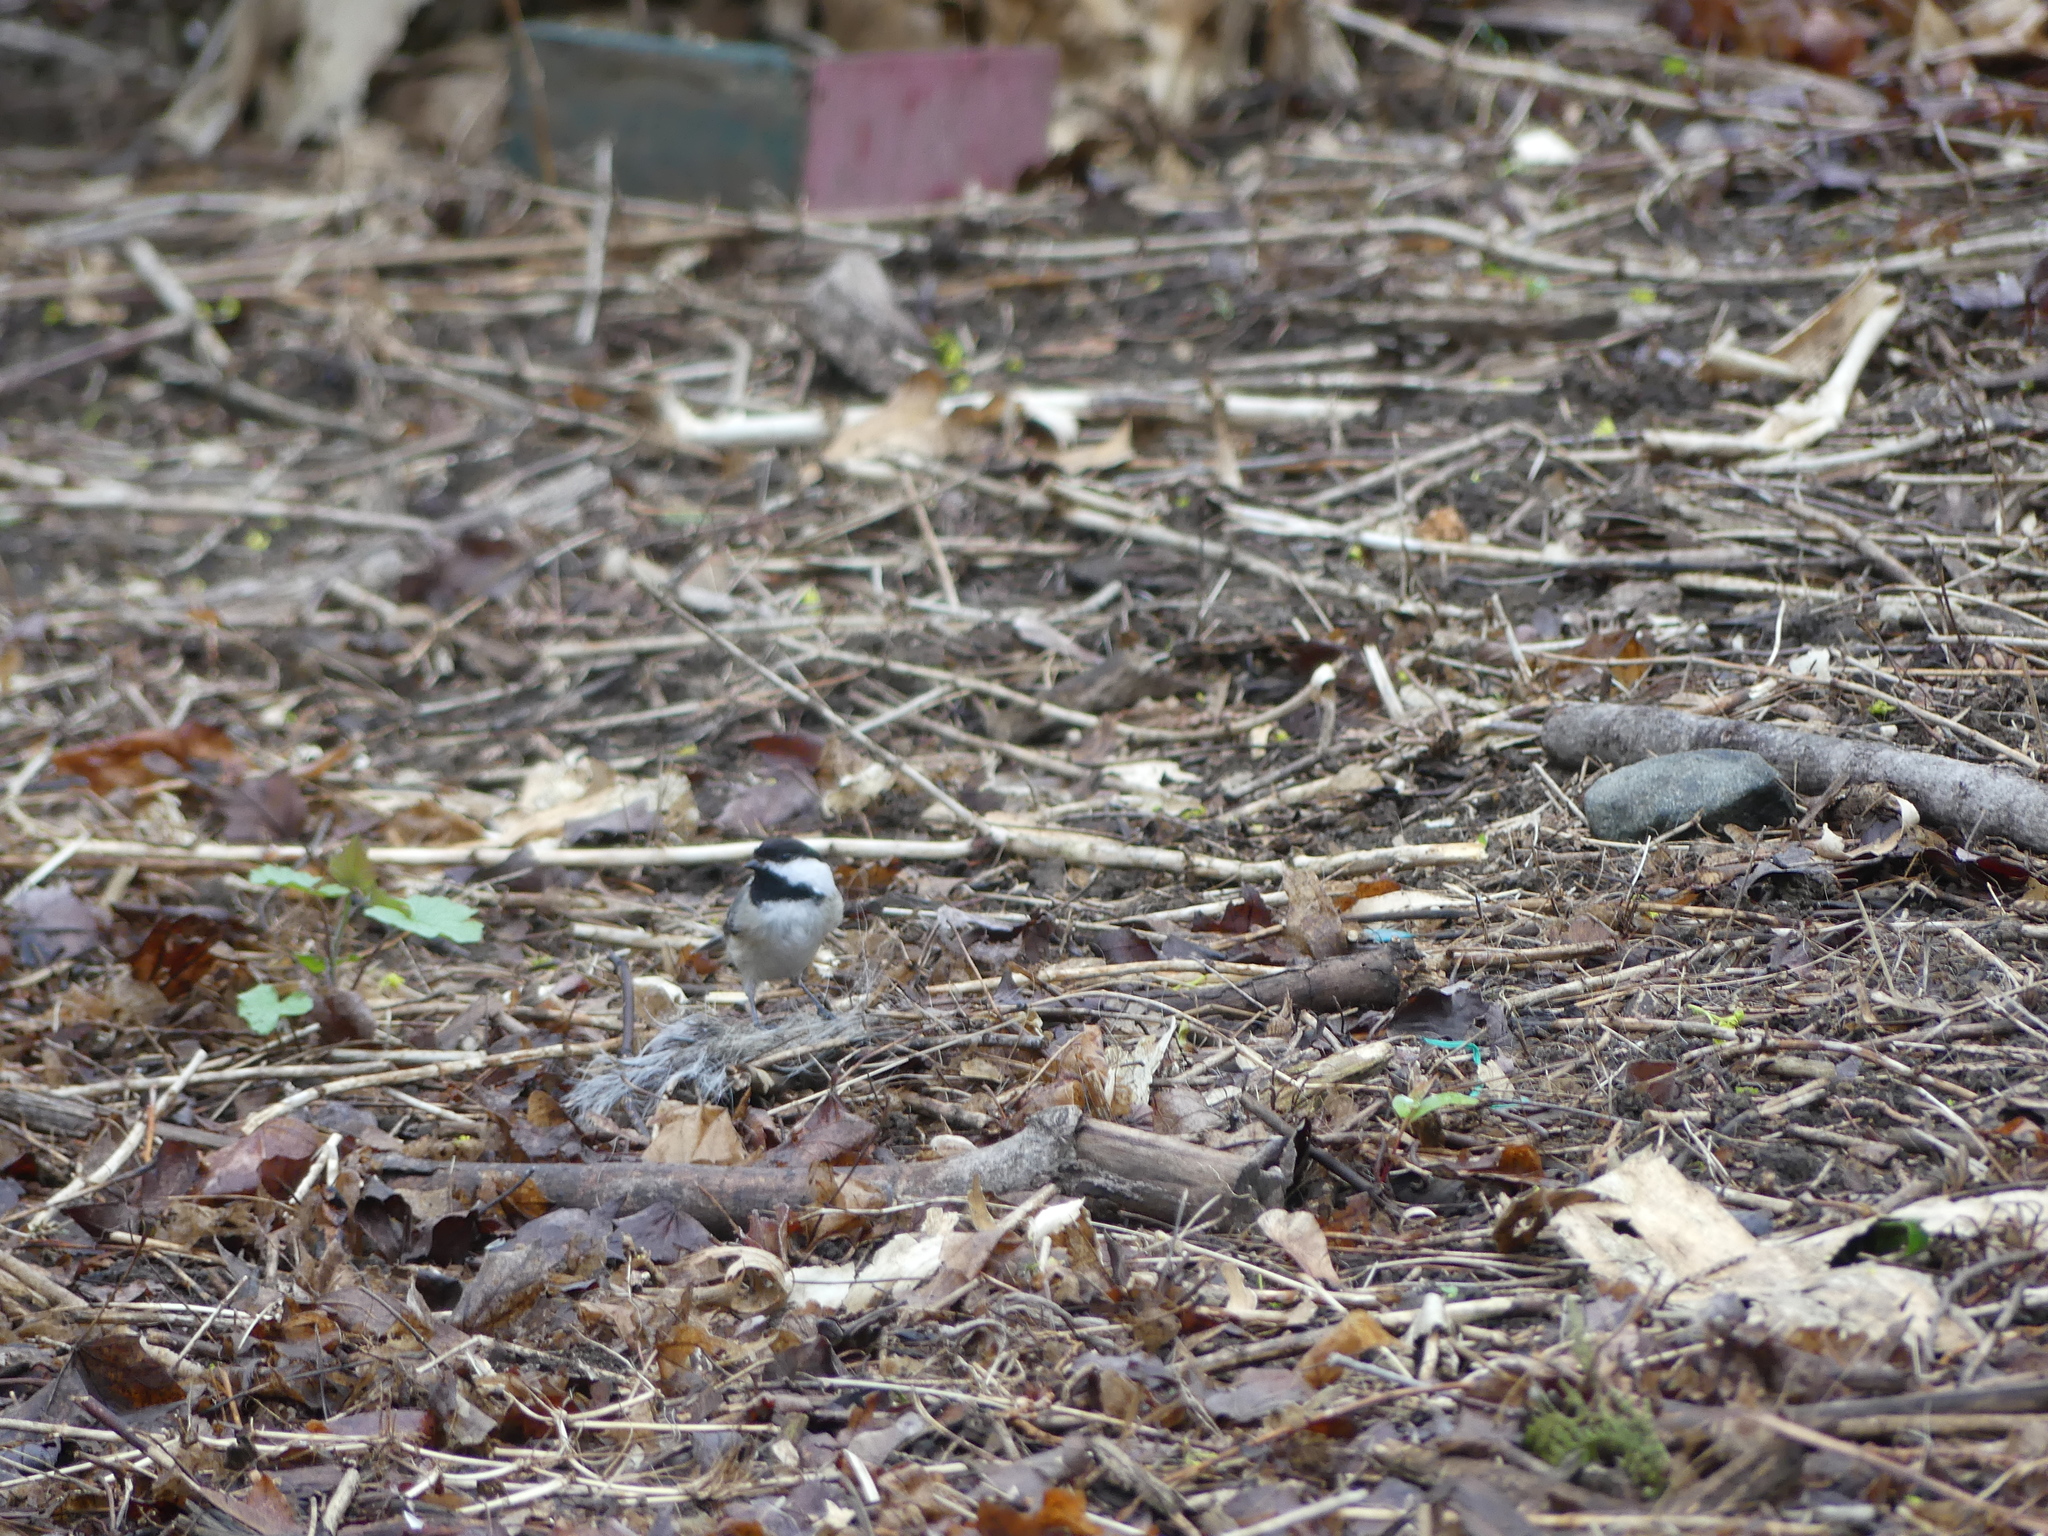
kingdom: Animalia
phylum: Chordata
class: Aves
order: Passeriformes
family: Paridae
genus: Poecile
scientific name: Poecile atricapillus
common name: Black-capped chickadee
